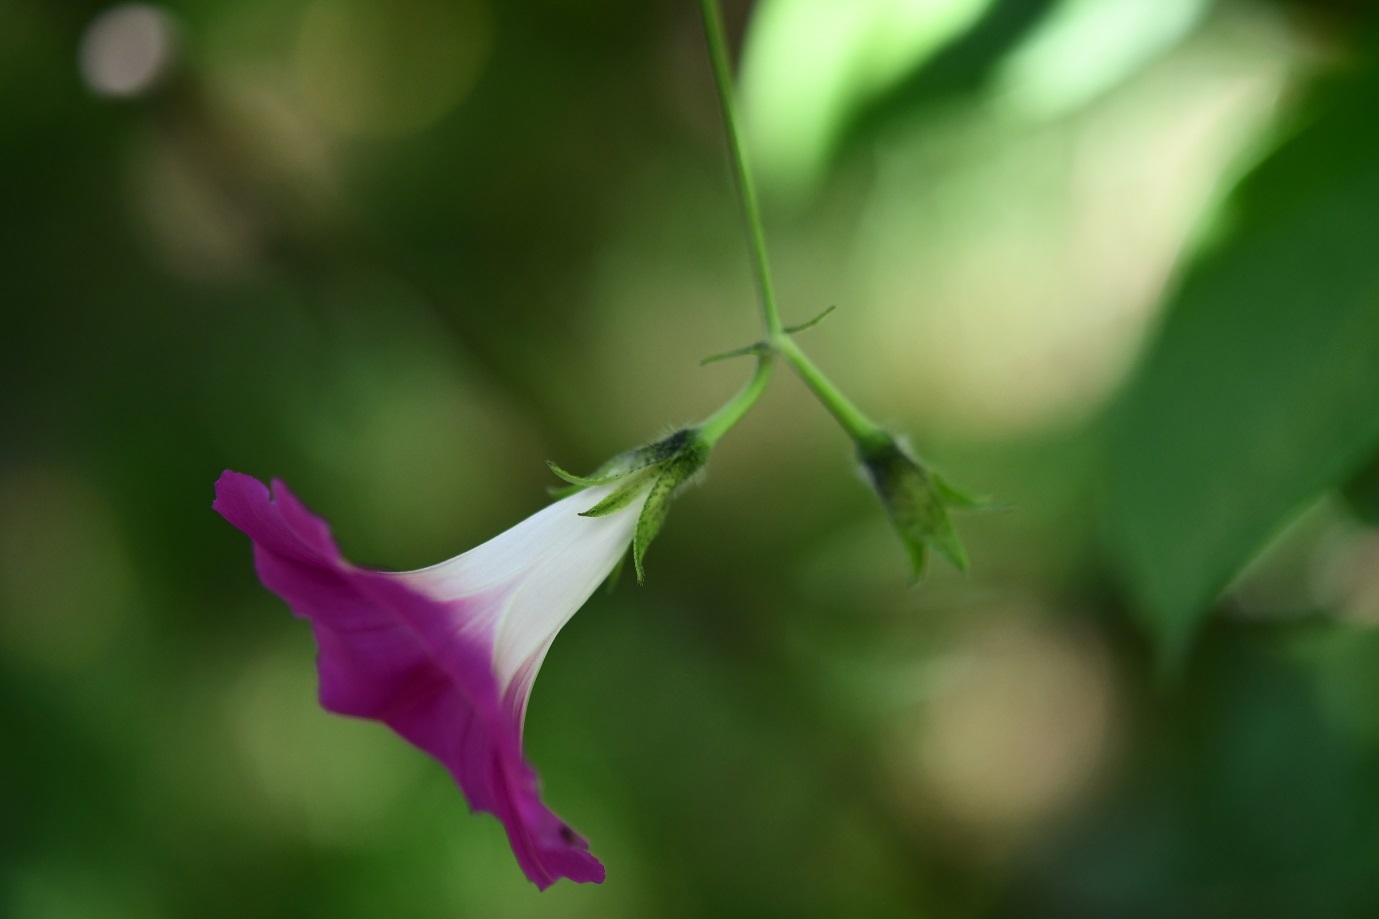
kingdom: Plantae
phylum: Tracheophyta
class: Magnoliopsida
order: Solanales
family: Convolvulaceae
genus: Ipomoea
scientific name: Ipomoea purpurea
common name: Common morning-glory
